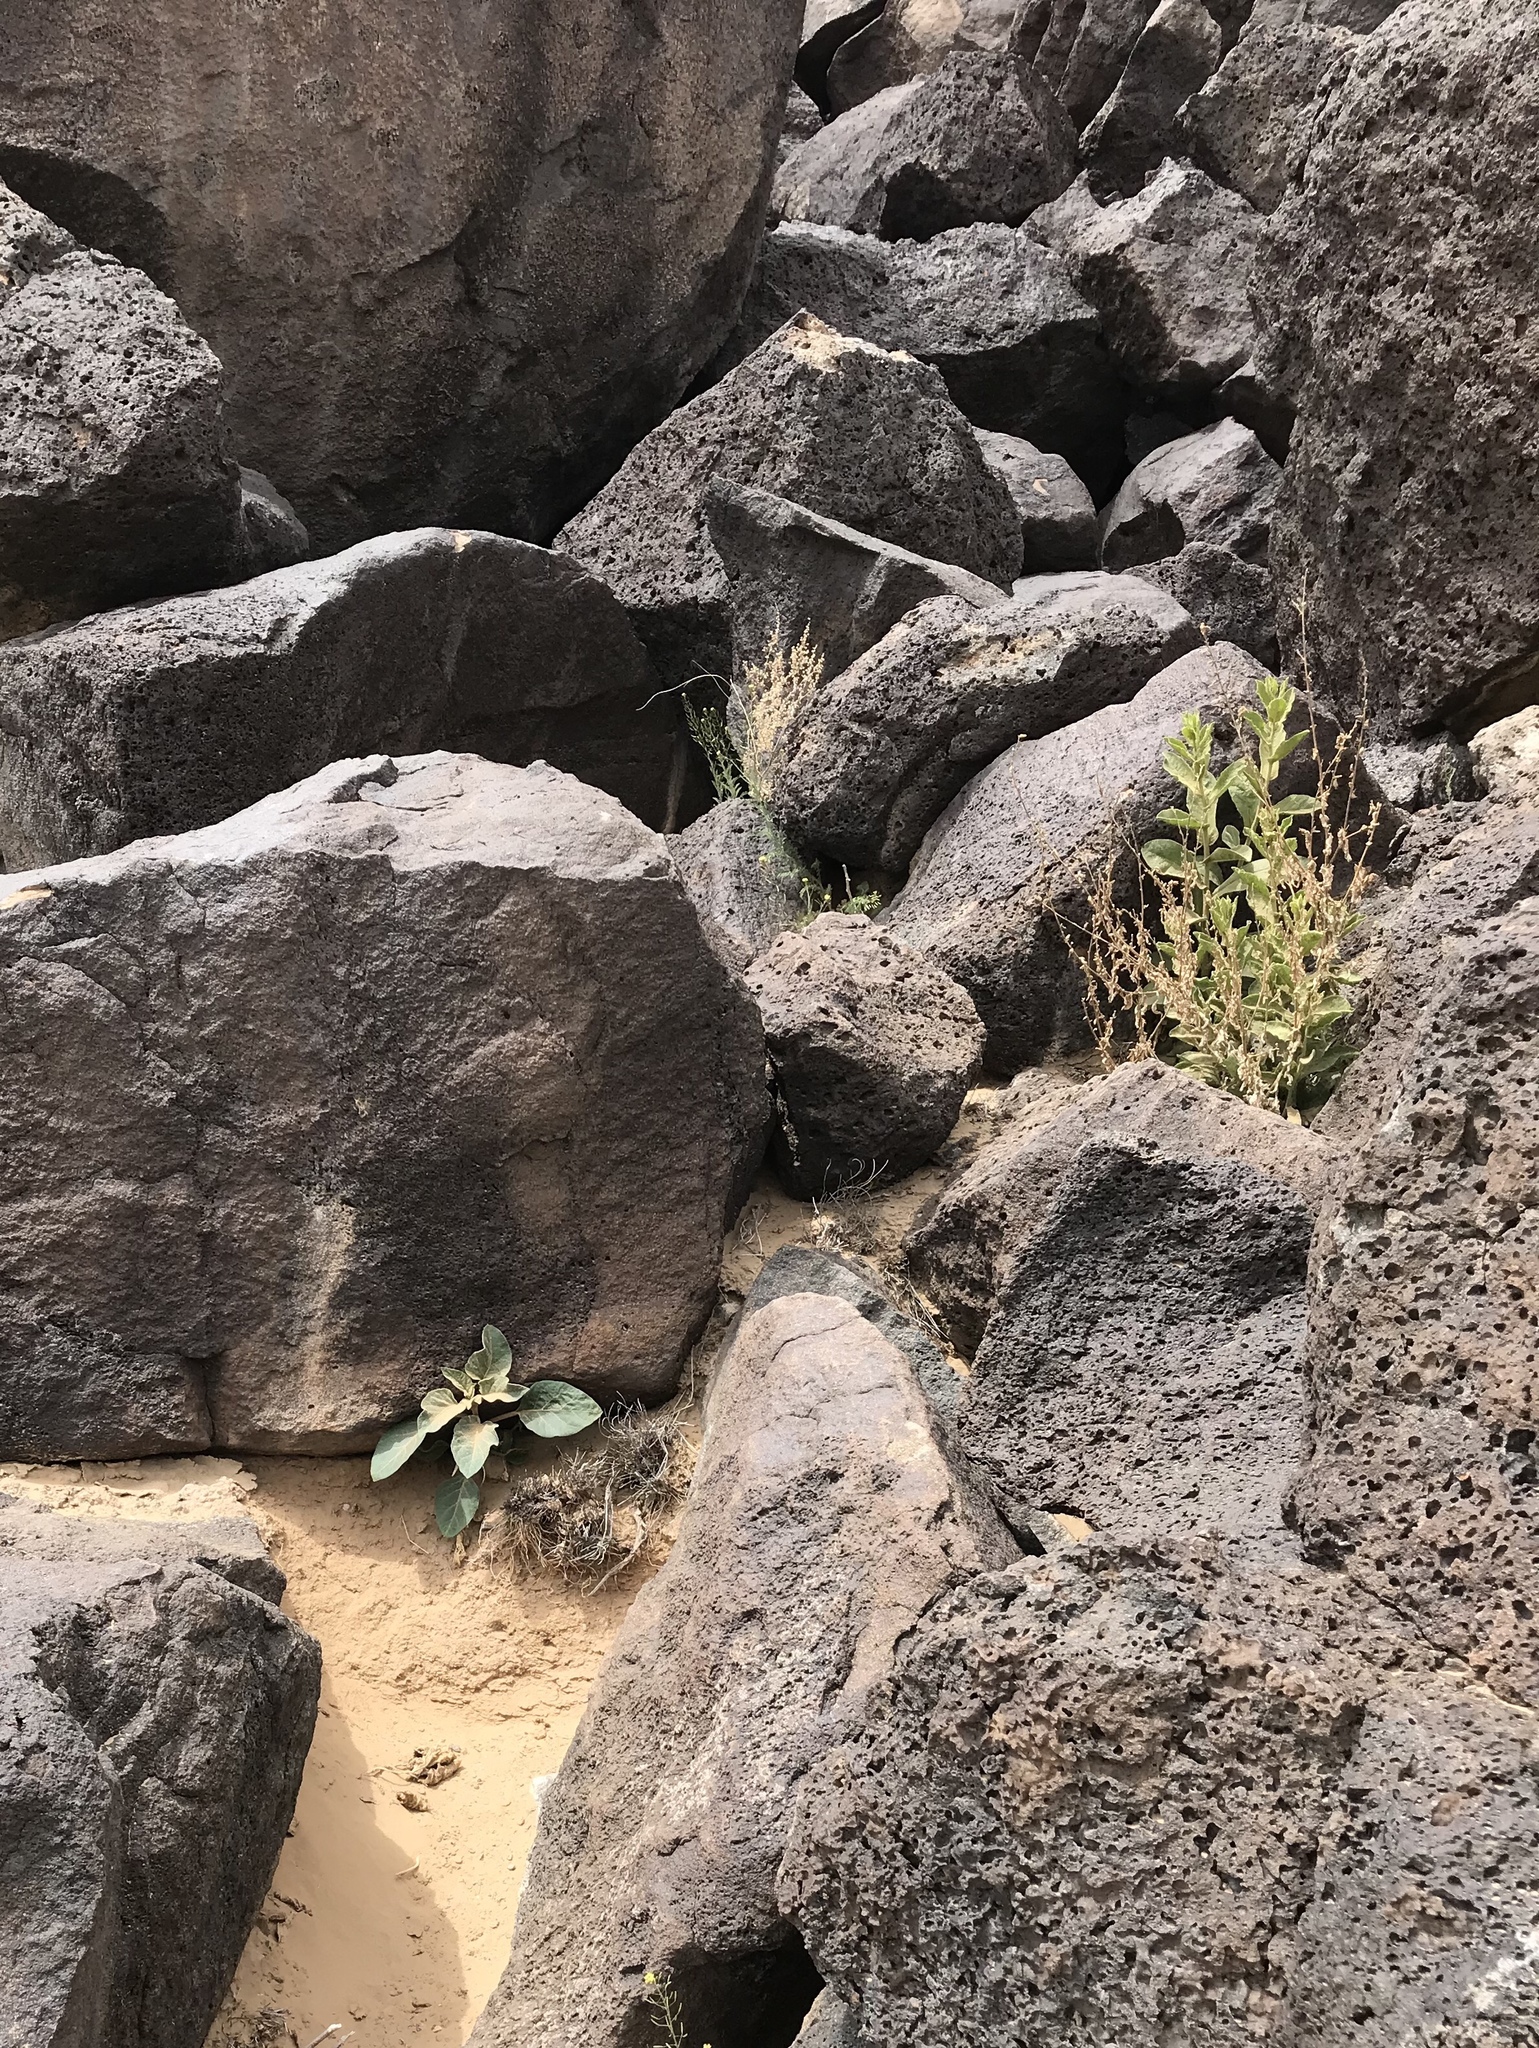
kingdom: Plantae
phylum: Tracheophyta
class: Magnoliopsida
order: Solanales
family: Solanaceae
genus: Datura
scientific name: Datura wrightii
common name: Sacred thorn-apple
